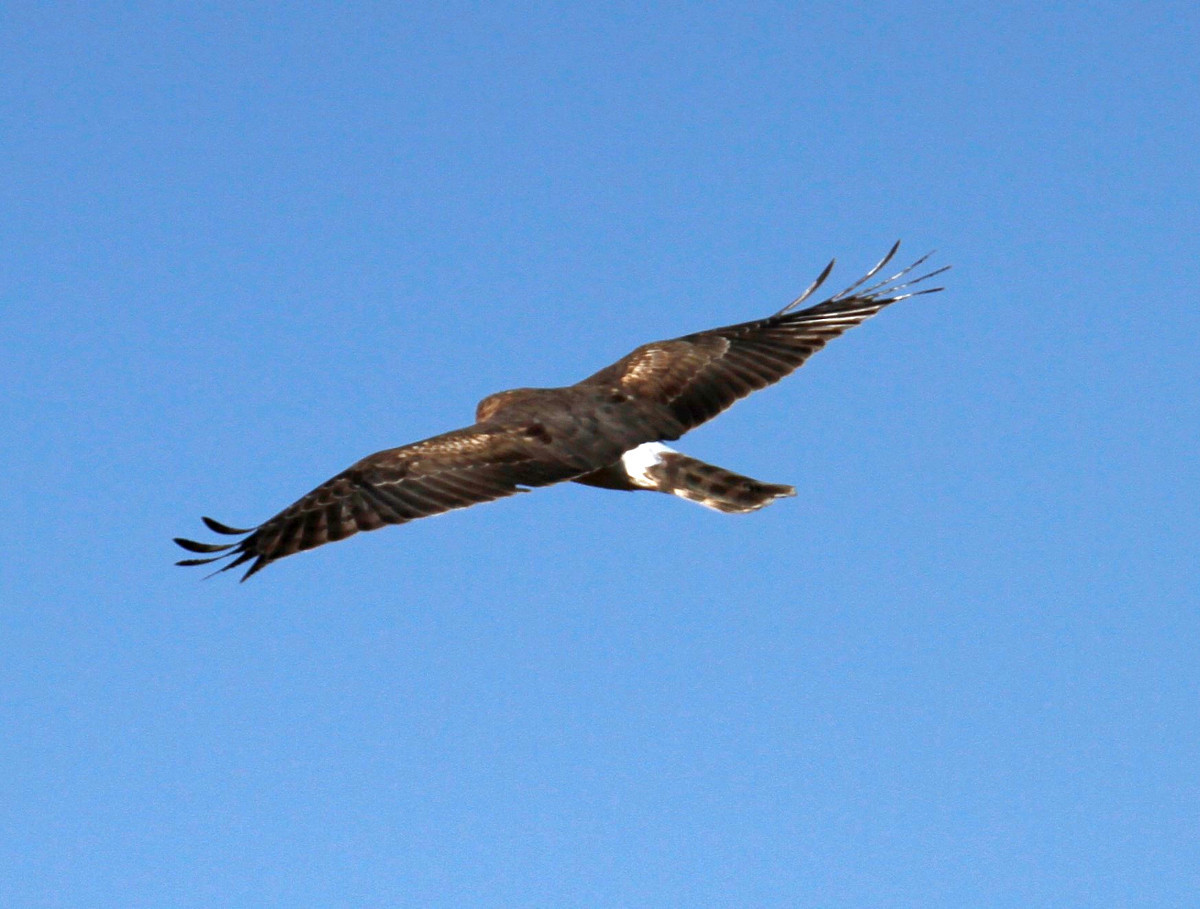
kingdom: Animalia
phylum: Chordata
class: Aves
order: Accipitriformes
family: Accipitridae
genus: Circus
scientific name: Circus cyaneus
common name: Hen harrier
